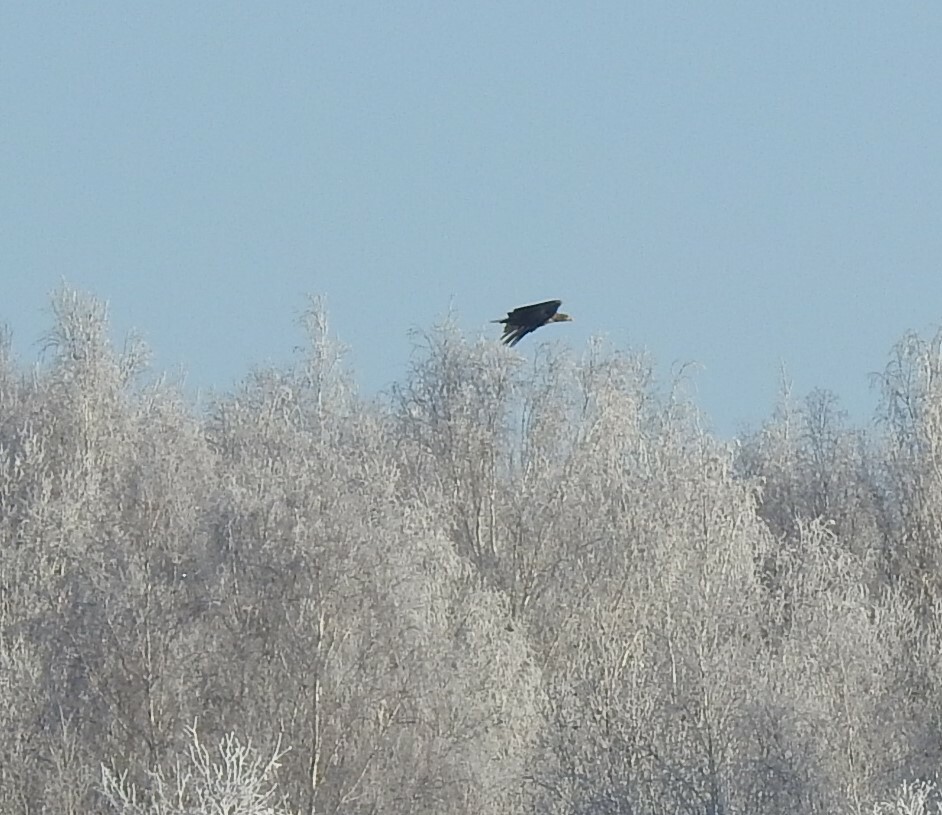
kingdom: Animalia
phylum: Chordata
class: Aves
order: Accipitriformes
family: Accipitridae
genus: Haliaeetus
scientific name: Haliaeetus albicilla
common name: White-tailed eagle
